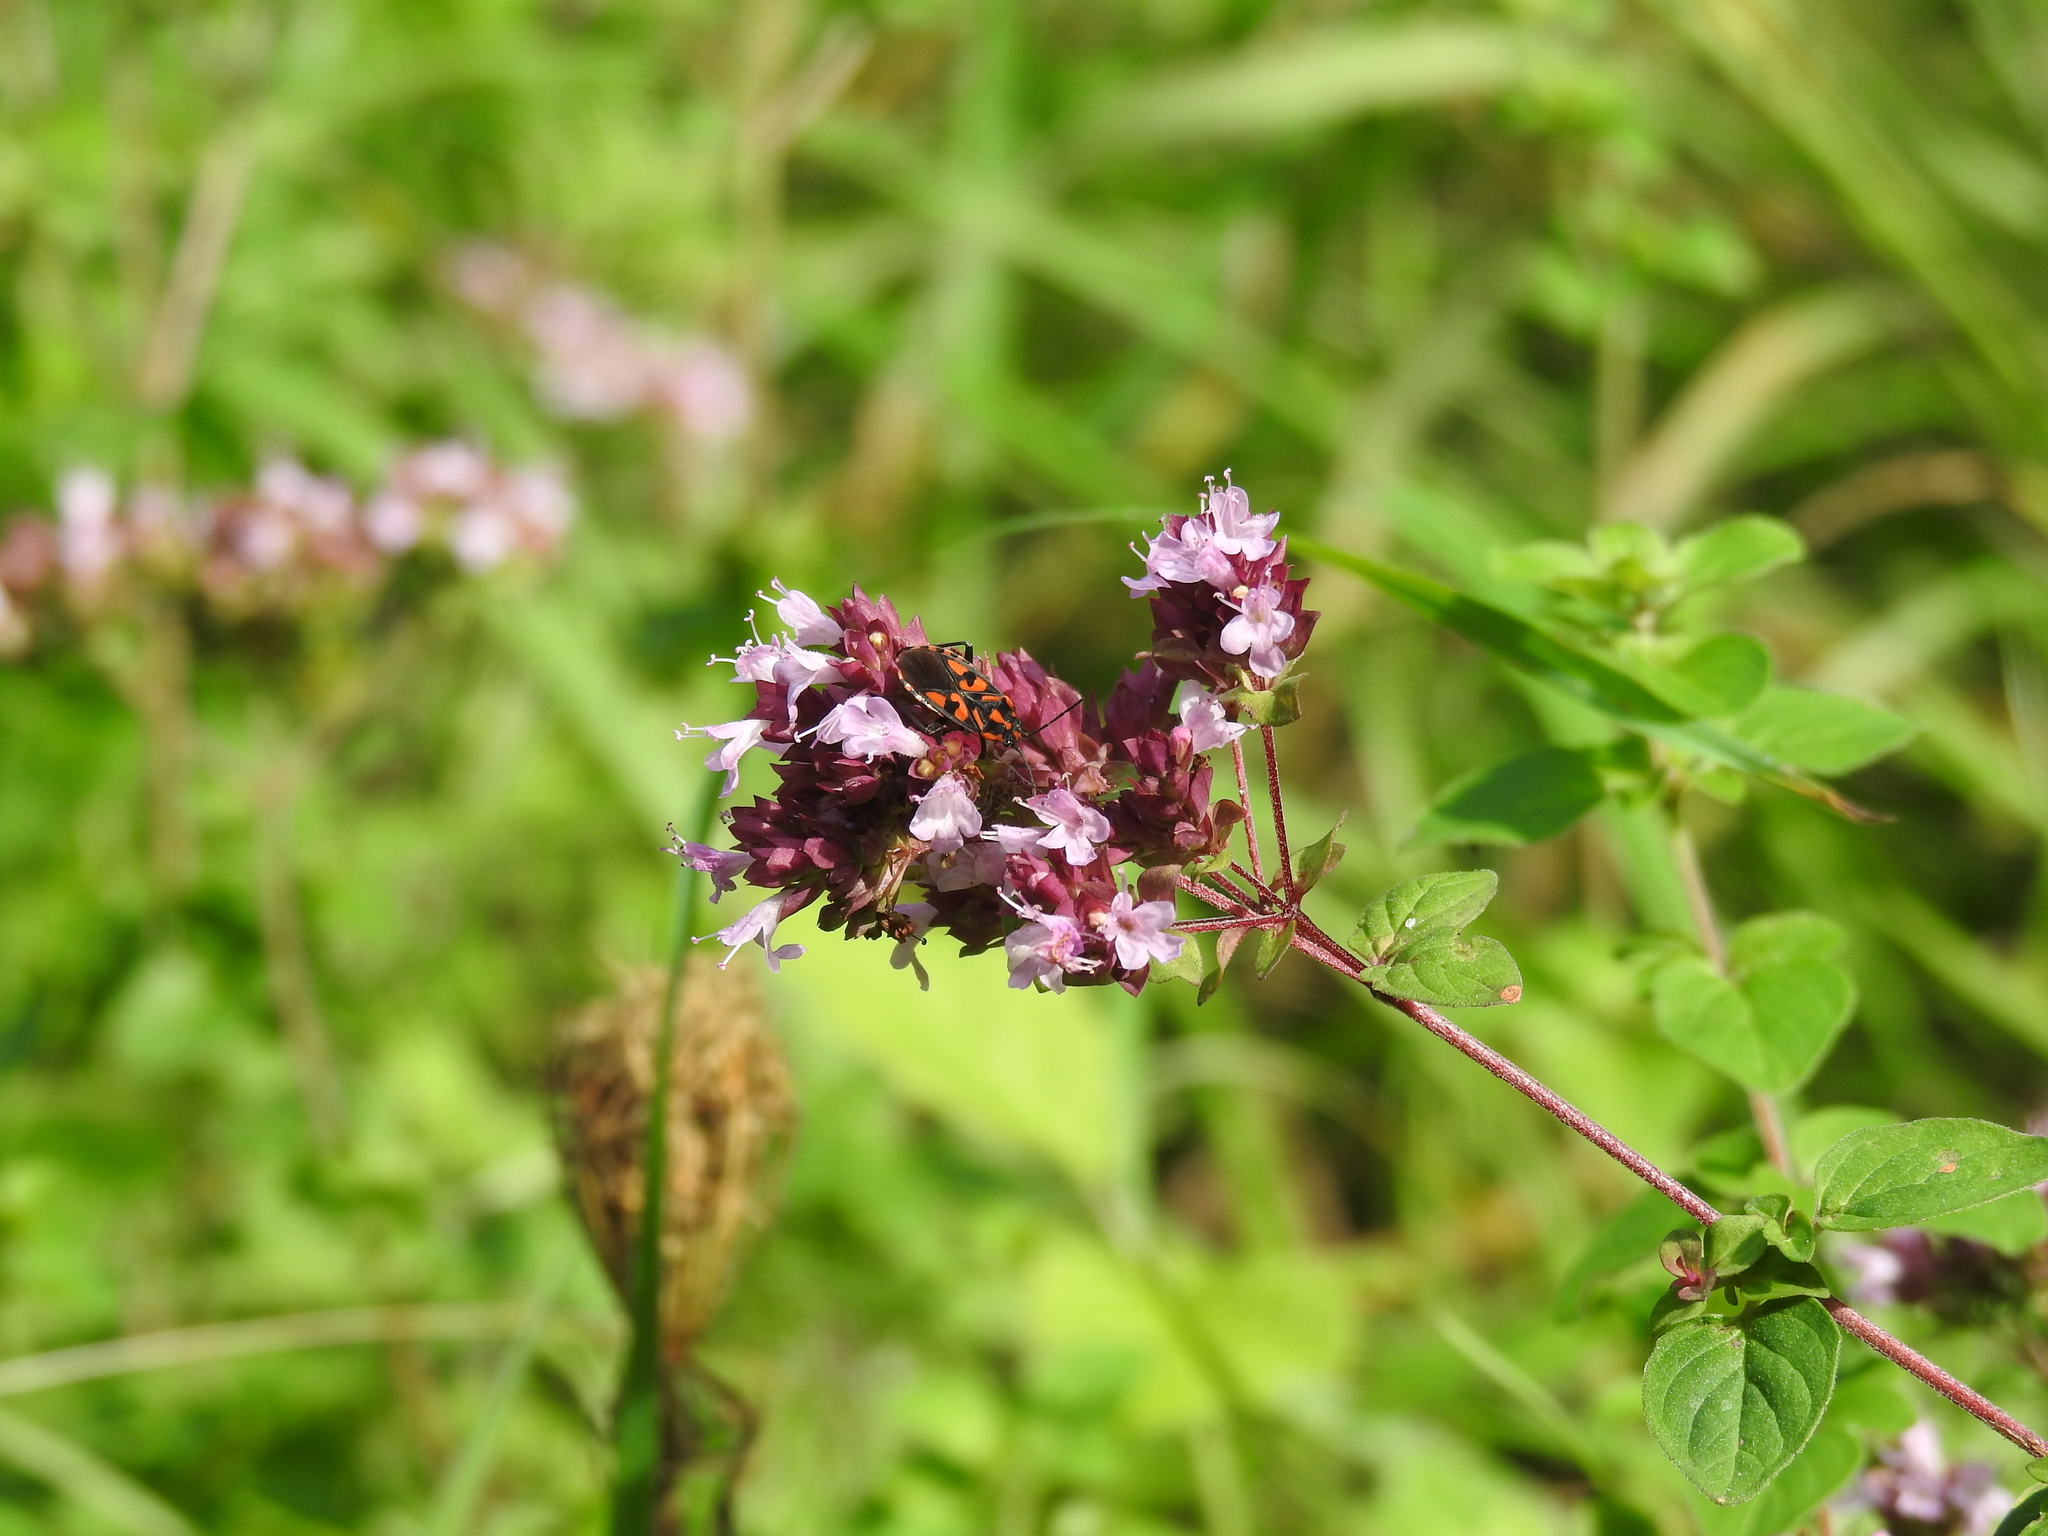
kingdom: Animalia
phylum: Arthropoda
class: Insecta
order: Hemiptera
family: Lygaeidae
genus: Spilostethus
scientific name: Spilostethus saxatilis
